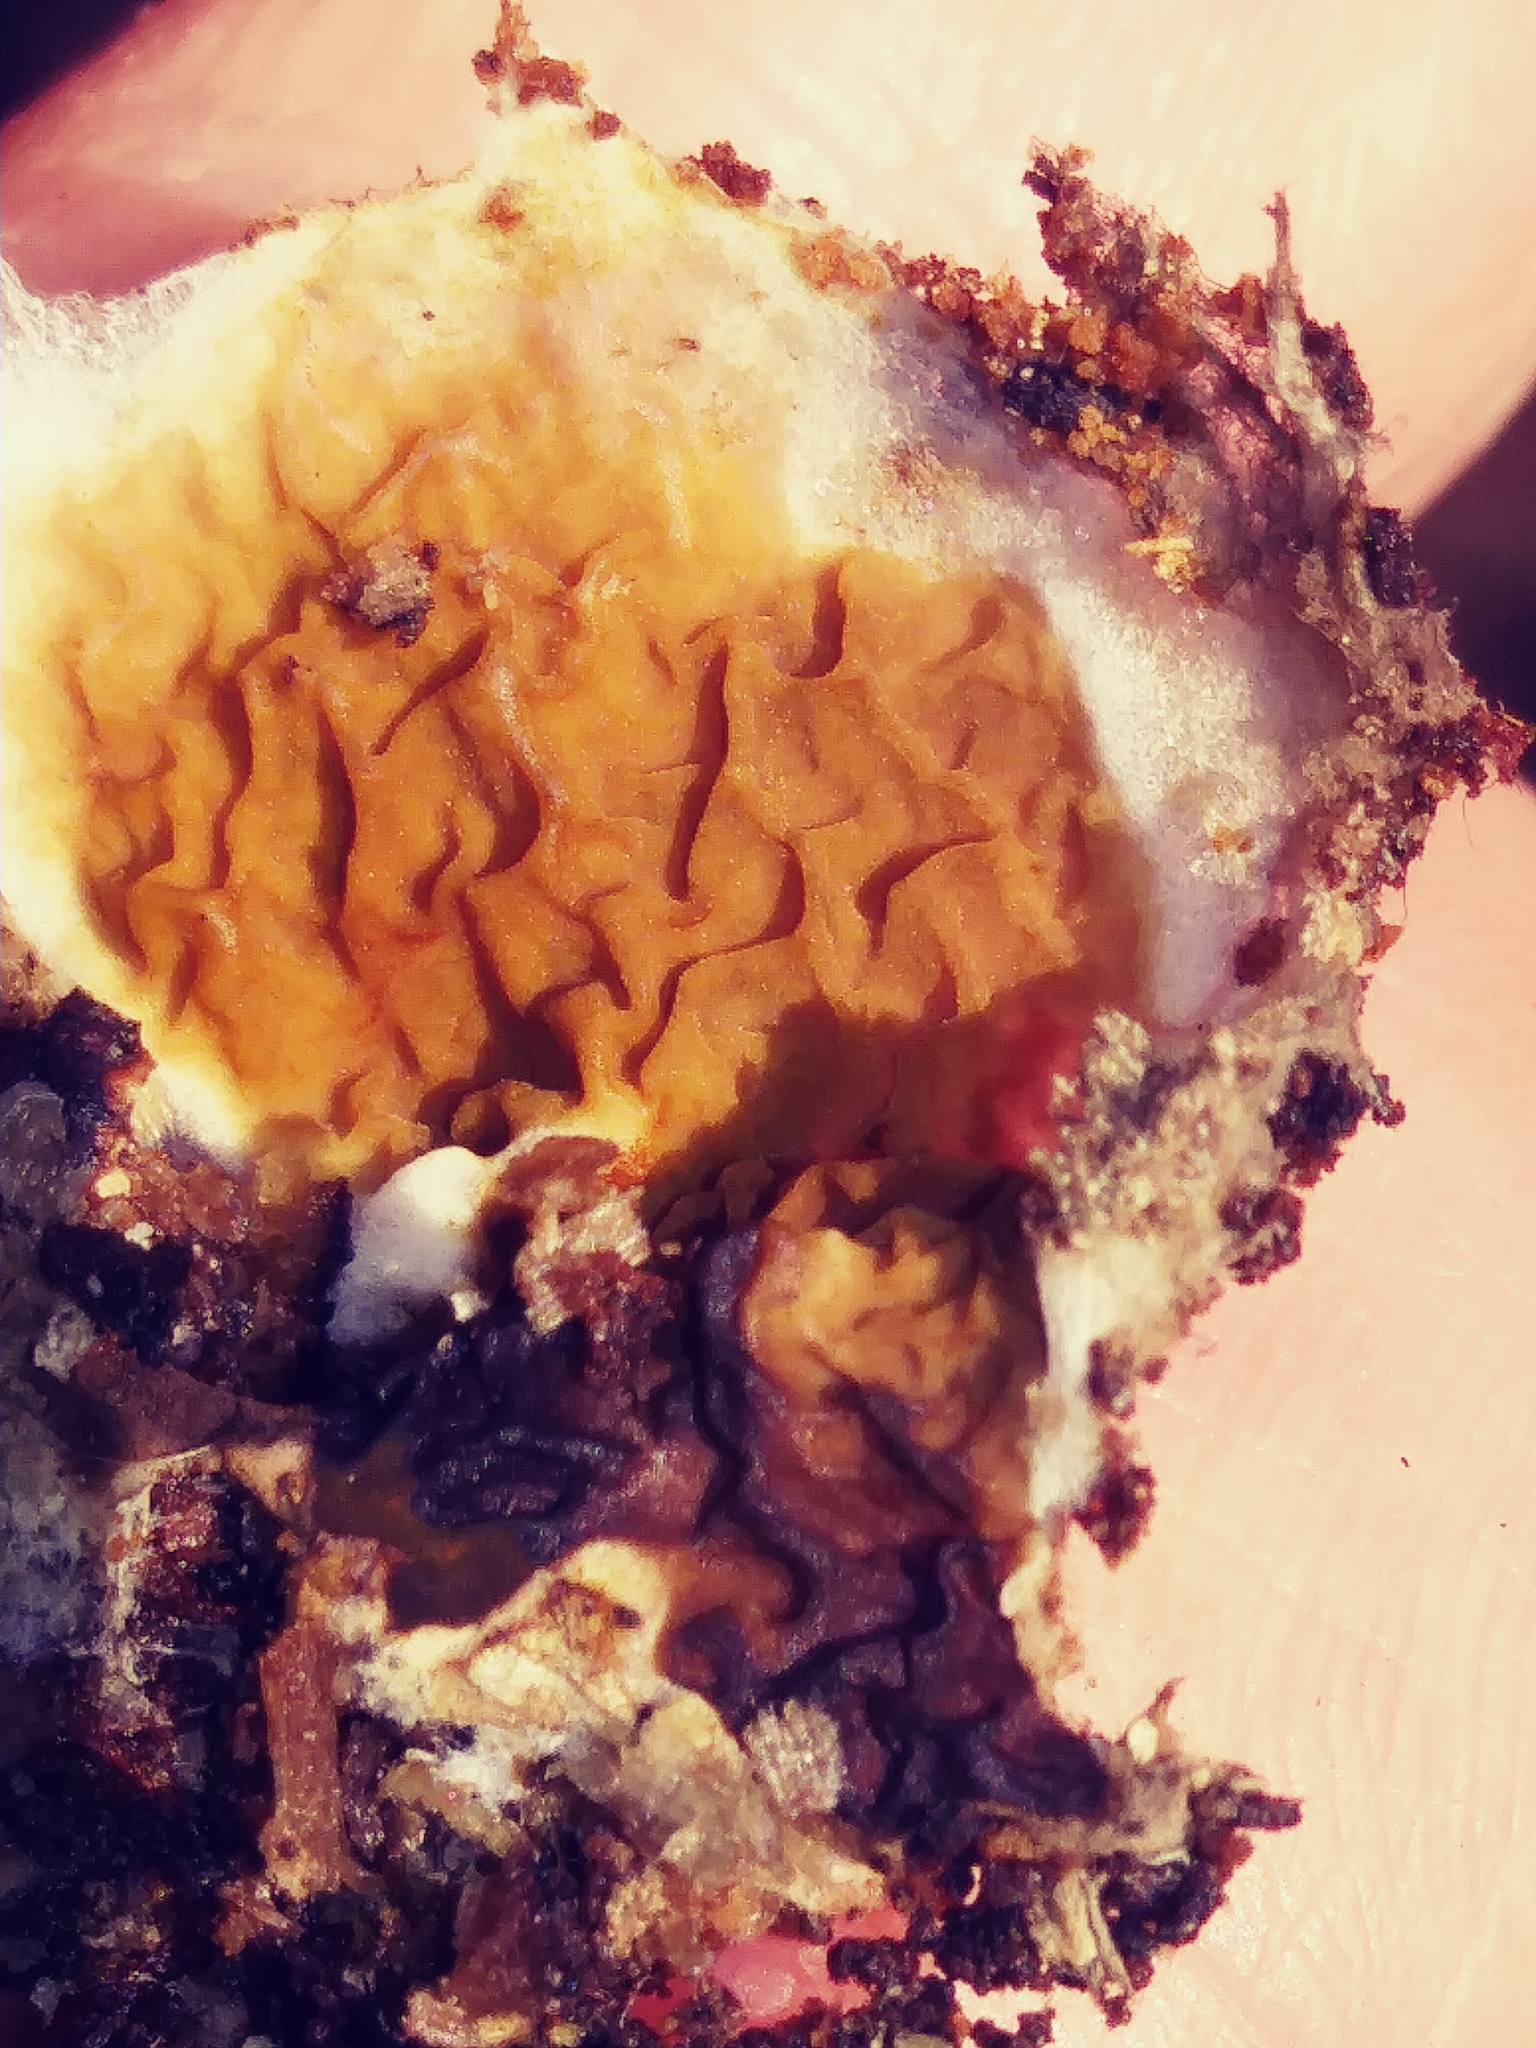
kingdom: Fungi
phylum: Basidiomycota
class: Agaricomycetes
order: Boletales
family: Serpulaceae
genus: Serpula
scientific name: Serpula himantioides
